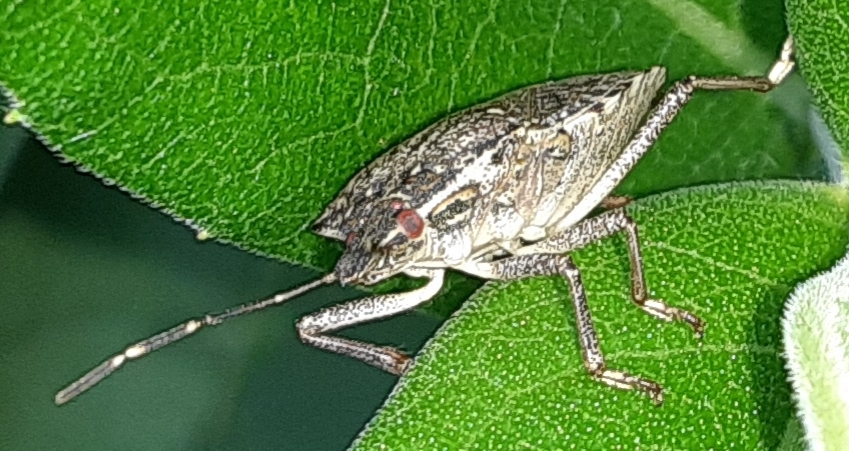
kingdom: Animalia
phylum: Arthropoda
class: Insecta
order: Hemiptera
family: Pentatomidae
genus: Halyomorpha
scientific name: Halyomorpha halys
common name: Brown marmorated stink bug
